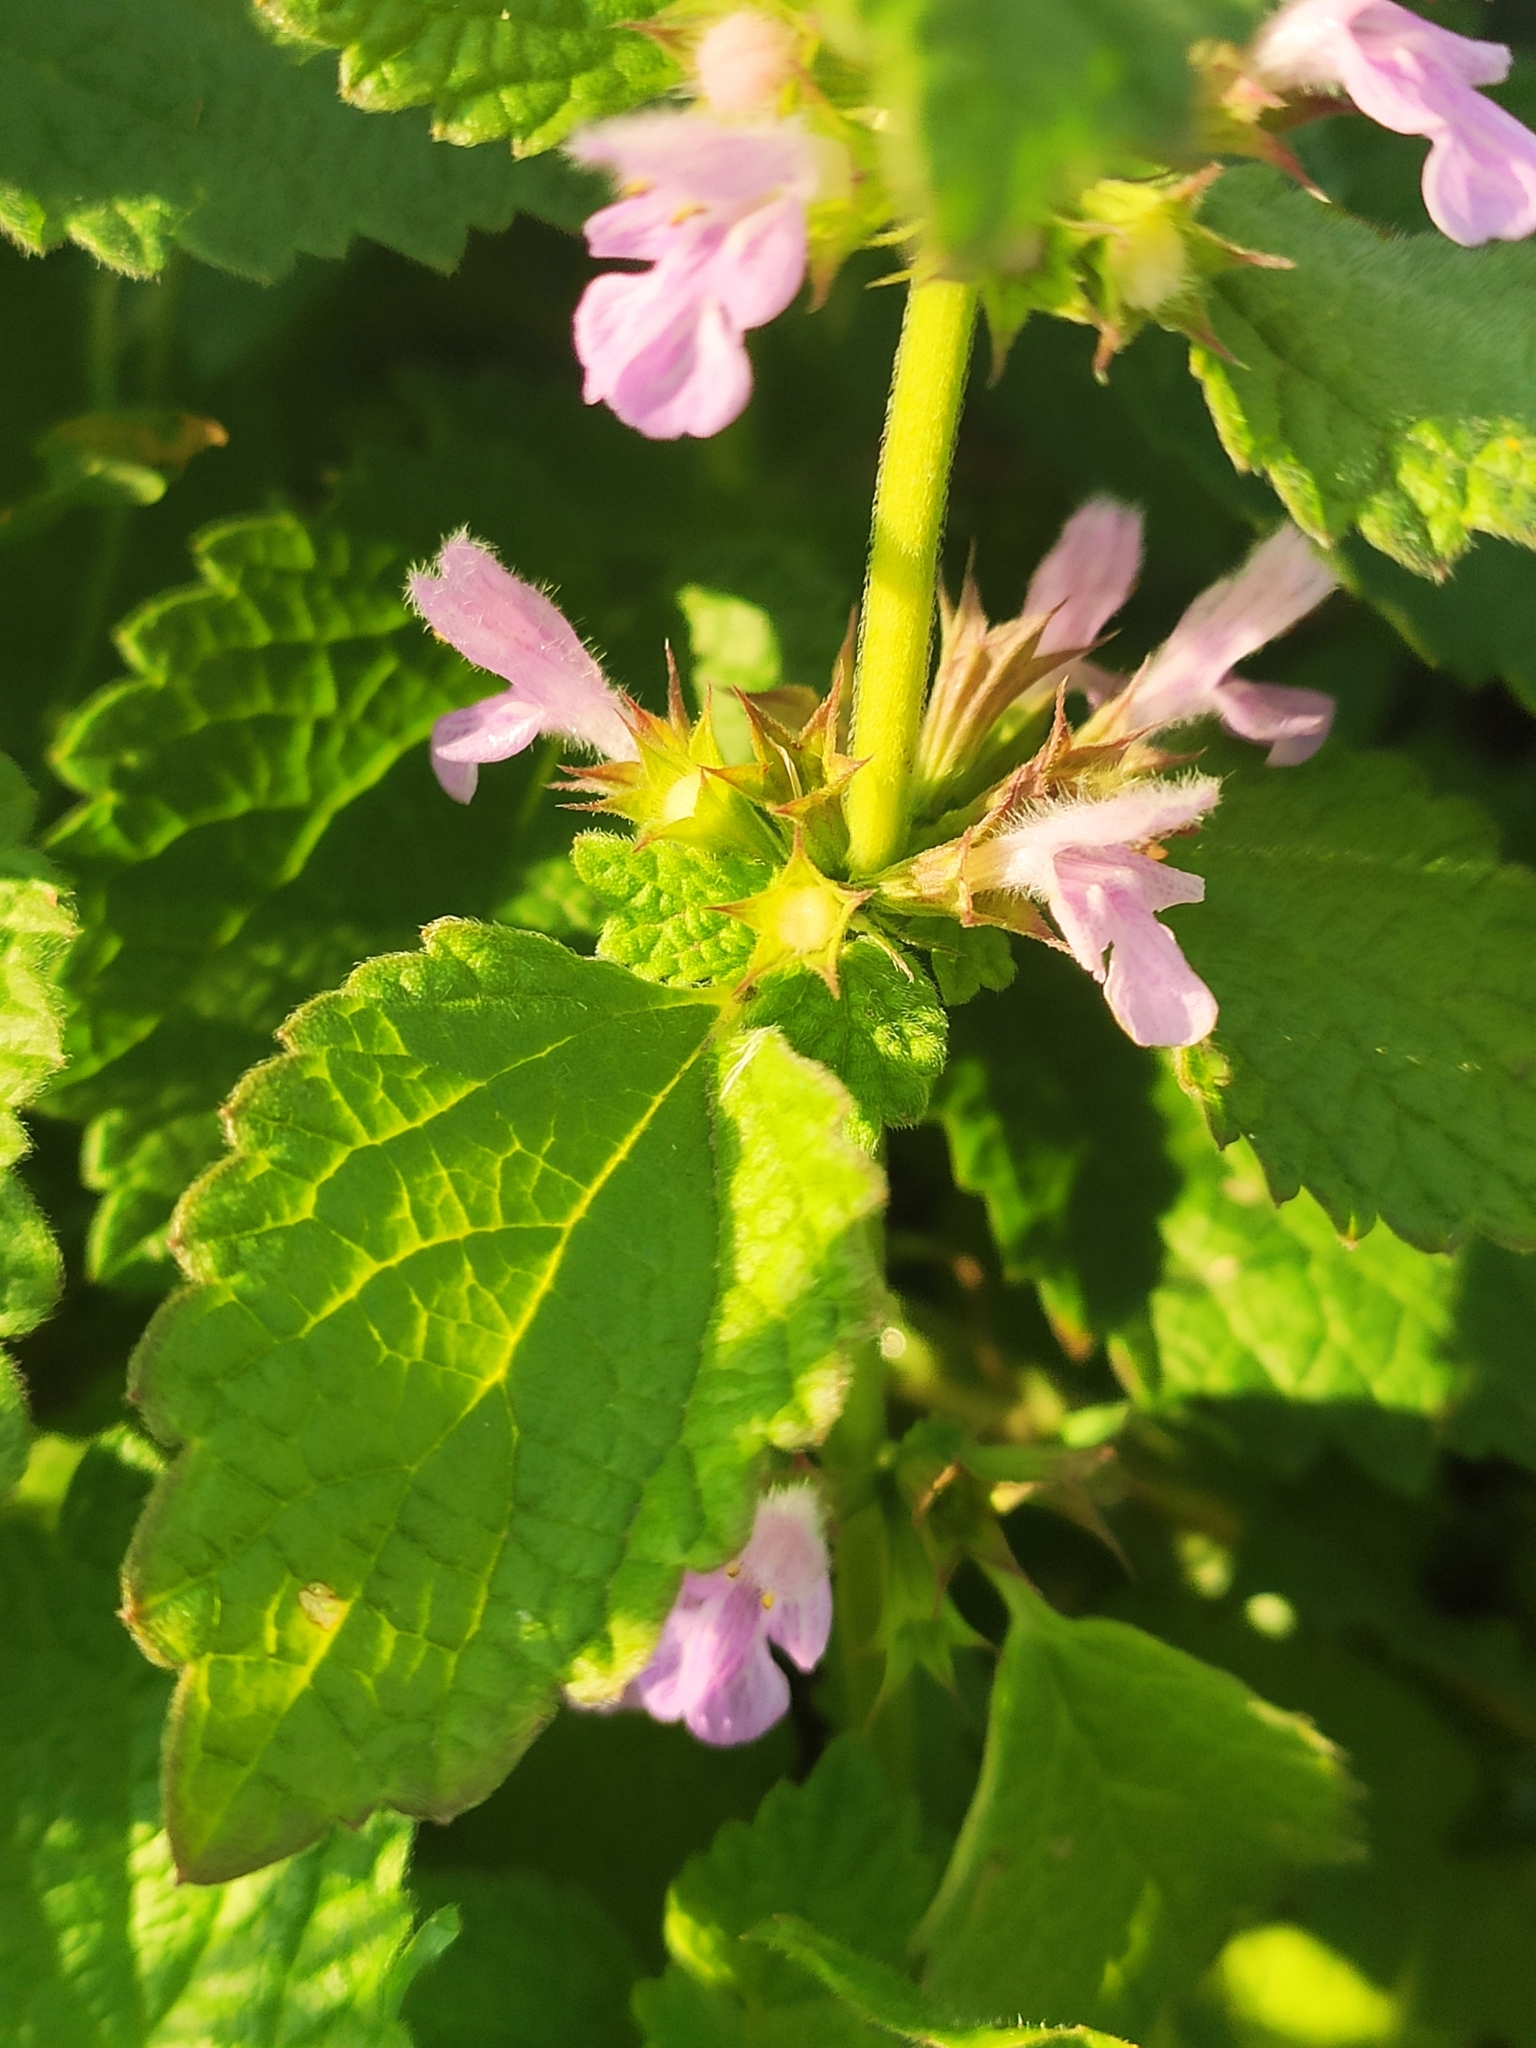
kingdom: Plantae
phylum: Tracheophyta
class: Magnoliopsida
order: Lamiales
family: Lamiaceae
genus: Ballota
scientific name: Ballota nigra
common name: Black horehound
